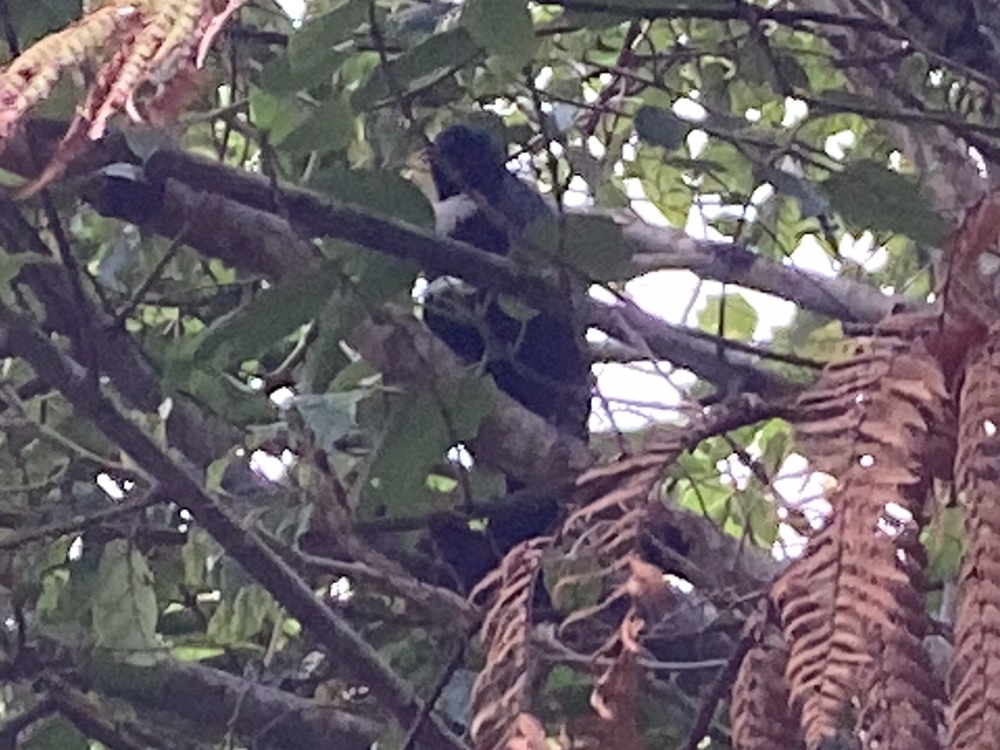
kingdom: Animalia
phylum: Chordata
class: Aves
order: Passeriformes
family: Meliphagidae
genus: Prosthemadera
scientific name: Prosthemadera novaeseelandiae
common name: Tui
